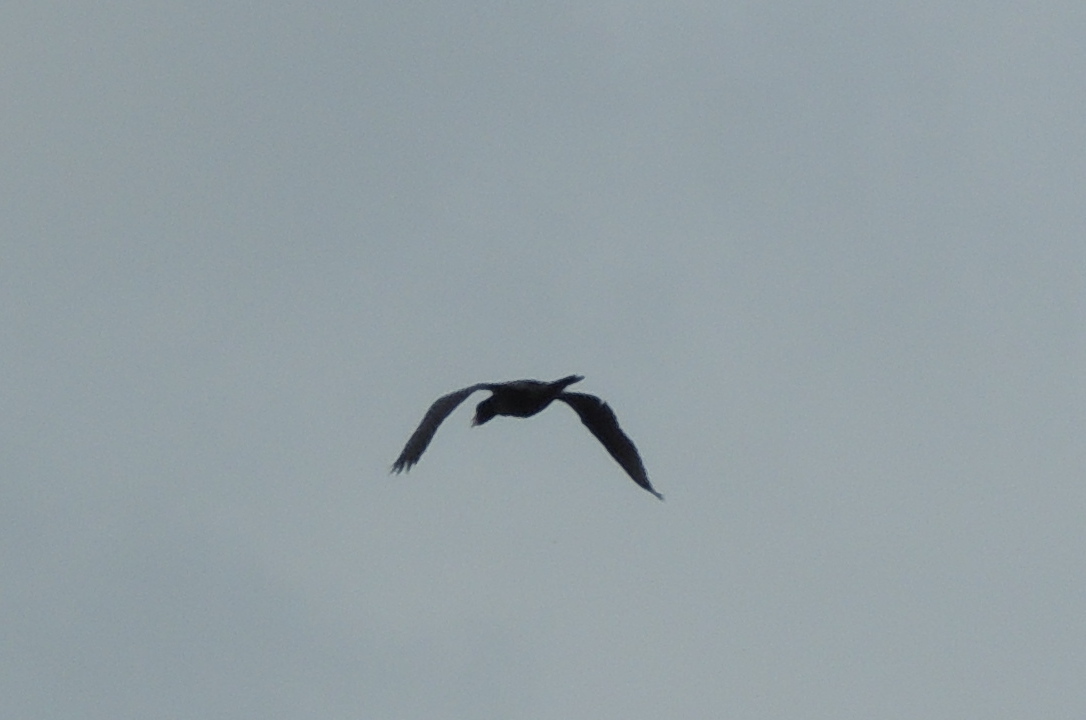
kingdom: Animalia
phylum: Chordata
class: Aves
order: Suliformes
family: Phalacrocoracidae
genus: Microcarbo
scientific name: Microcarbo africanus
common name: Long-tailed cormorant
